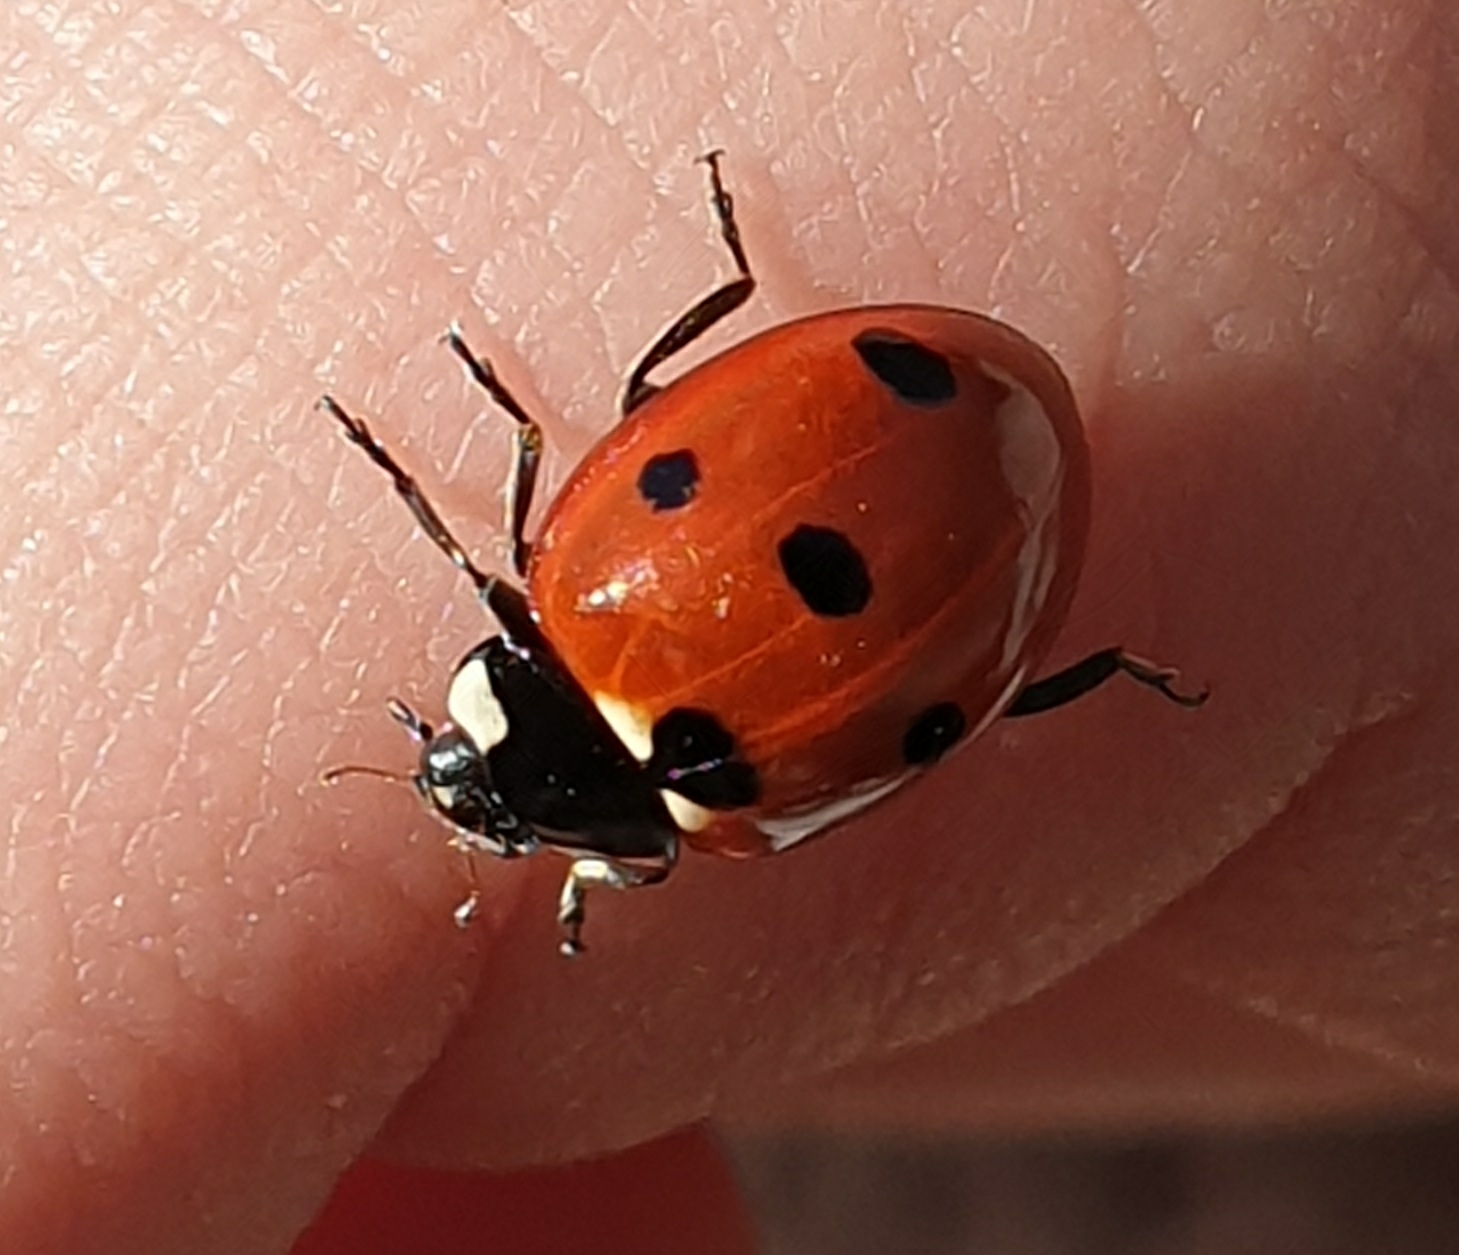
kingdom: Animalia
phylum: Arthropoda
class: Insecta
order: Coleoptera
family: Coccinellidae
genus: Coccinella
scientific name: Coccinella septempunctata
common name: Sevenspotted lady beetle
